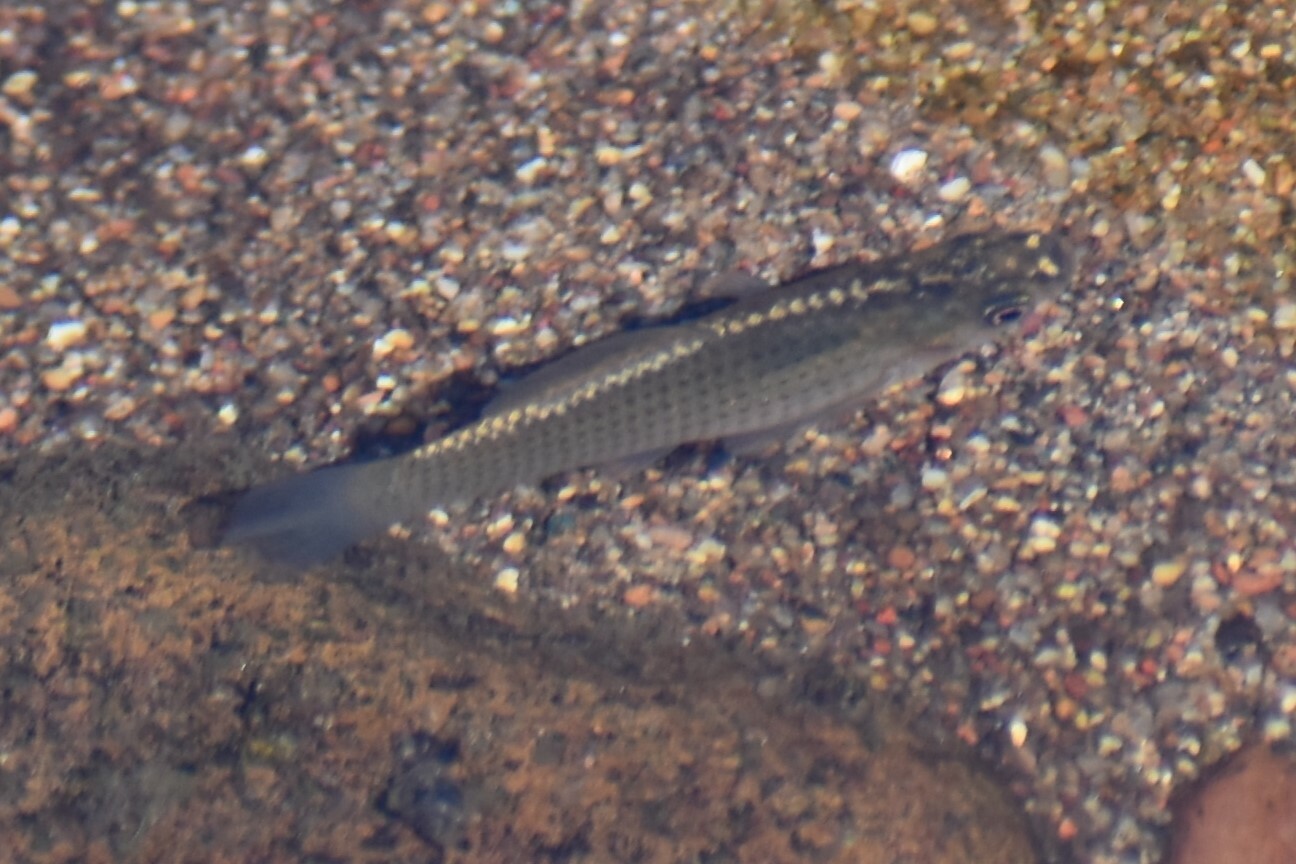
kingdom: Animalia
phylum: Chordata
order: Cyprinodontiformes
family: Poeciliidae
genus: Poecilia
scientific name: Poecilia latipinna
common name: Sailfin molly
